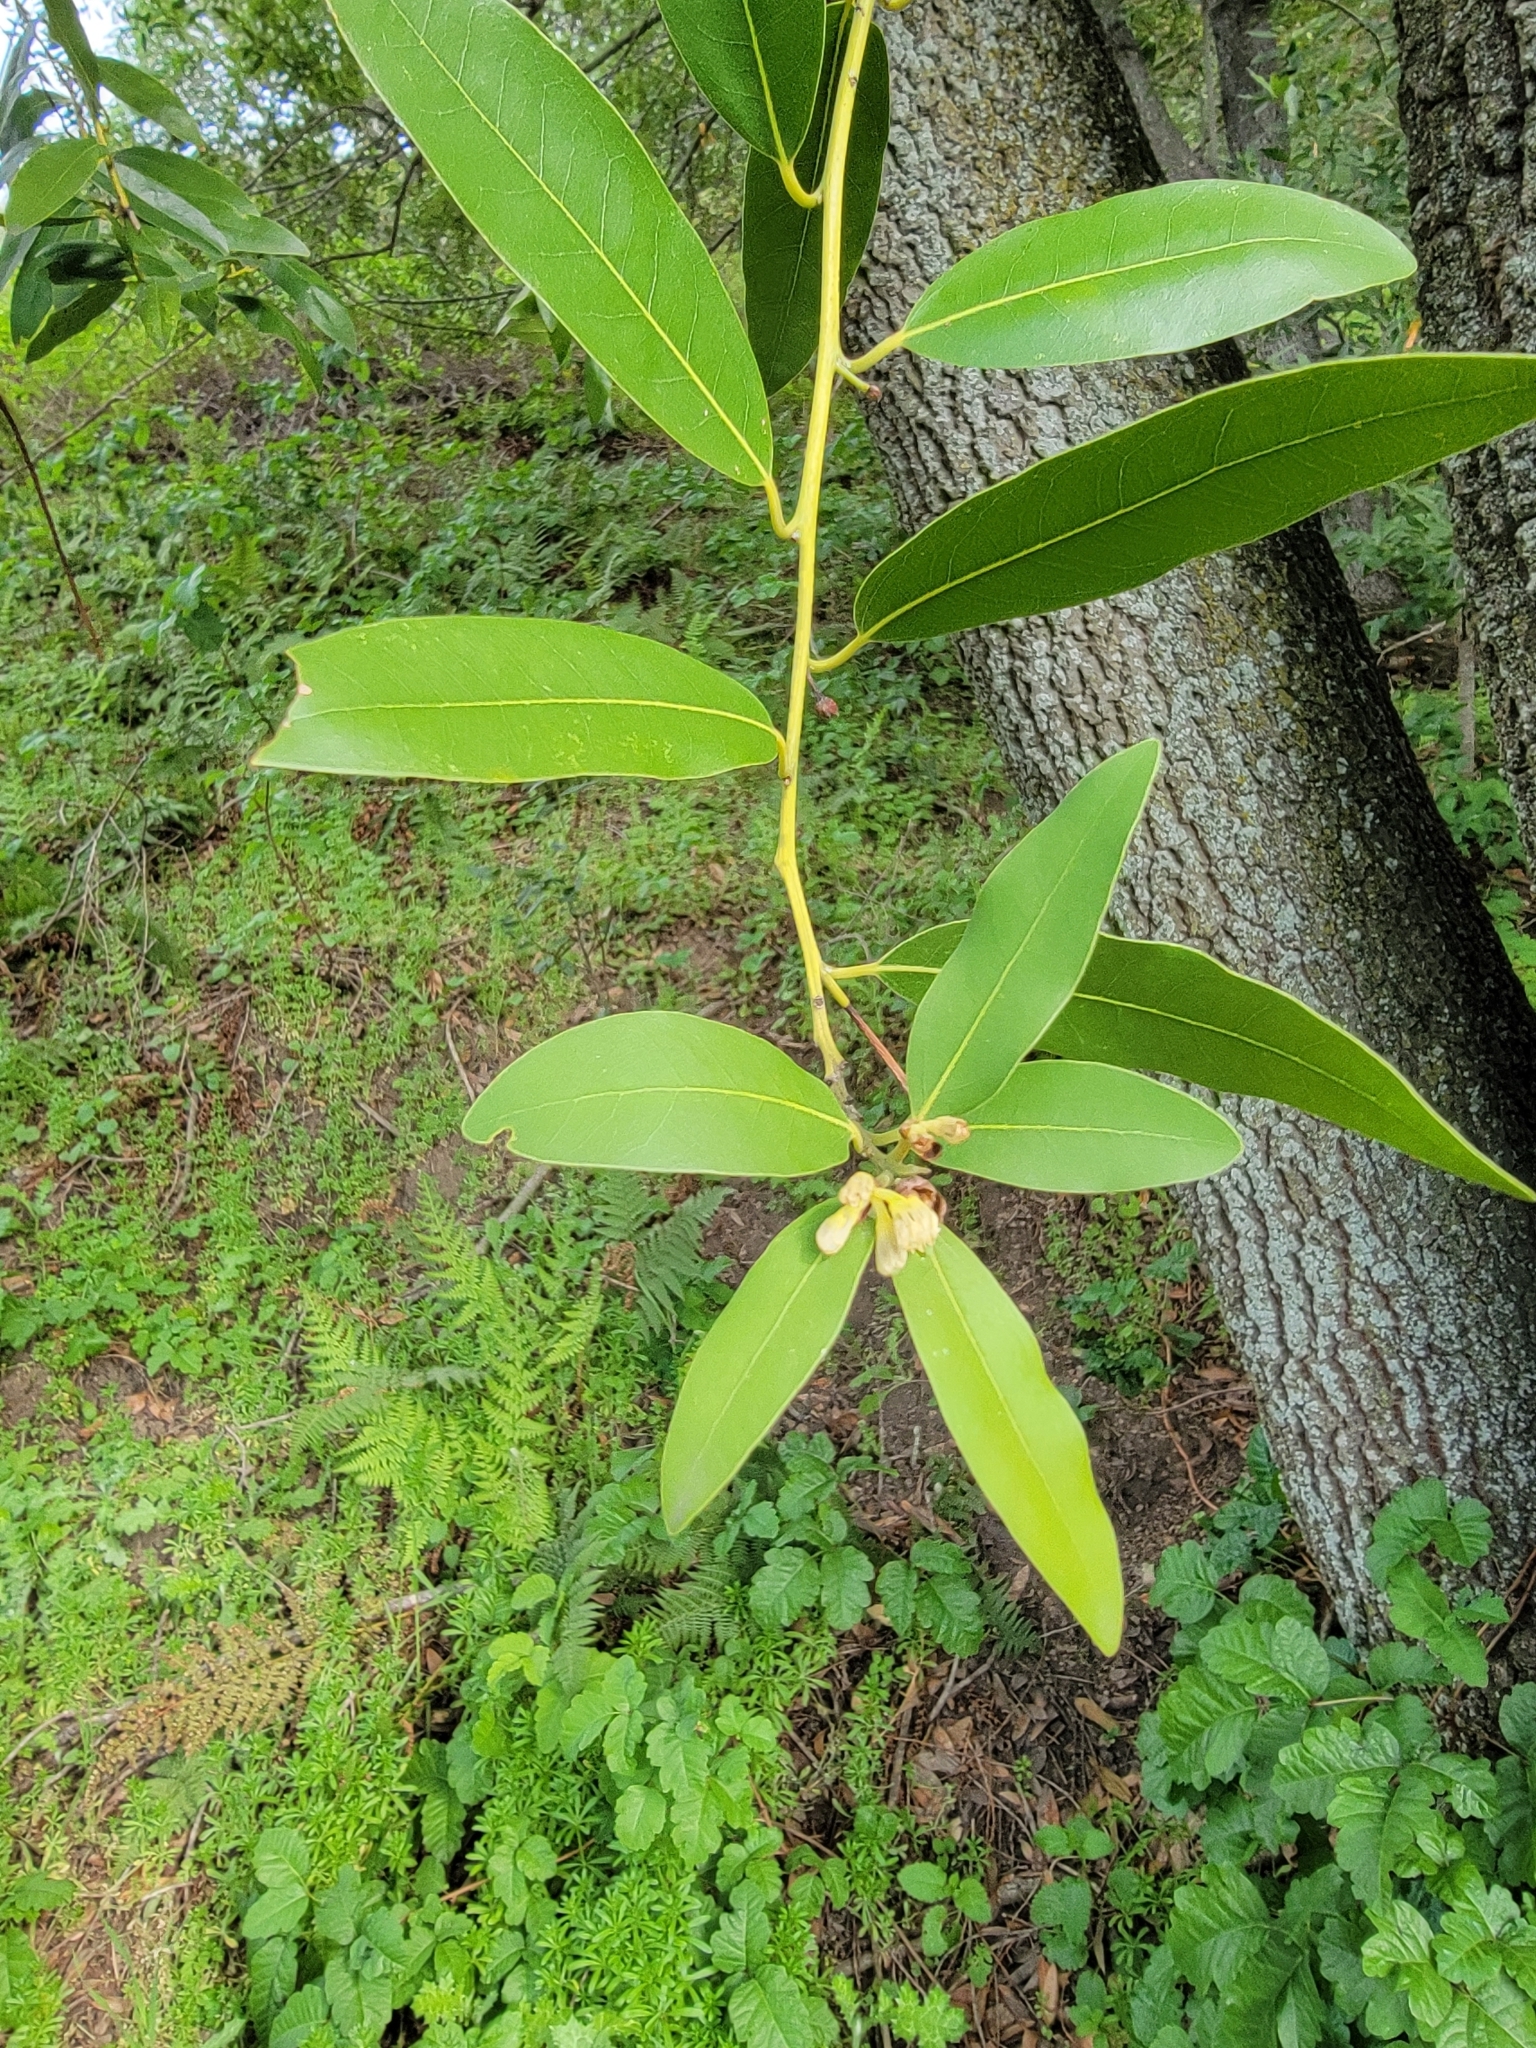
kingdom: Plantae
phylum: Tracheophyta
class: Magnoliopsida
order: Laurales
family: Lauraceae
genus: Umbellularia
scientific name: Umbellularia californica
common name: California bay
